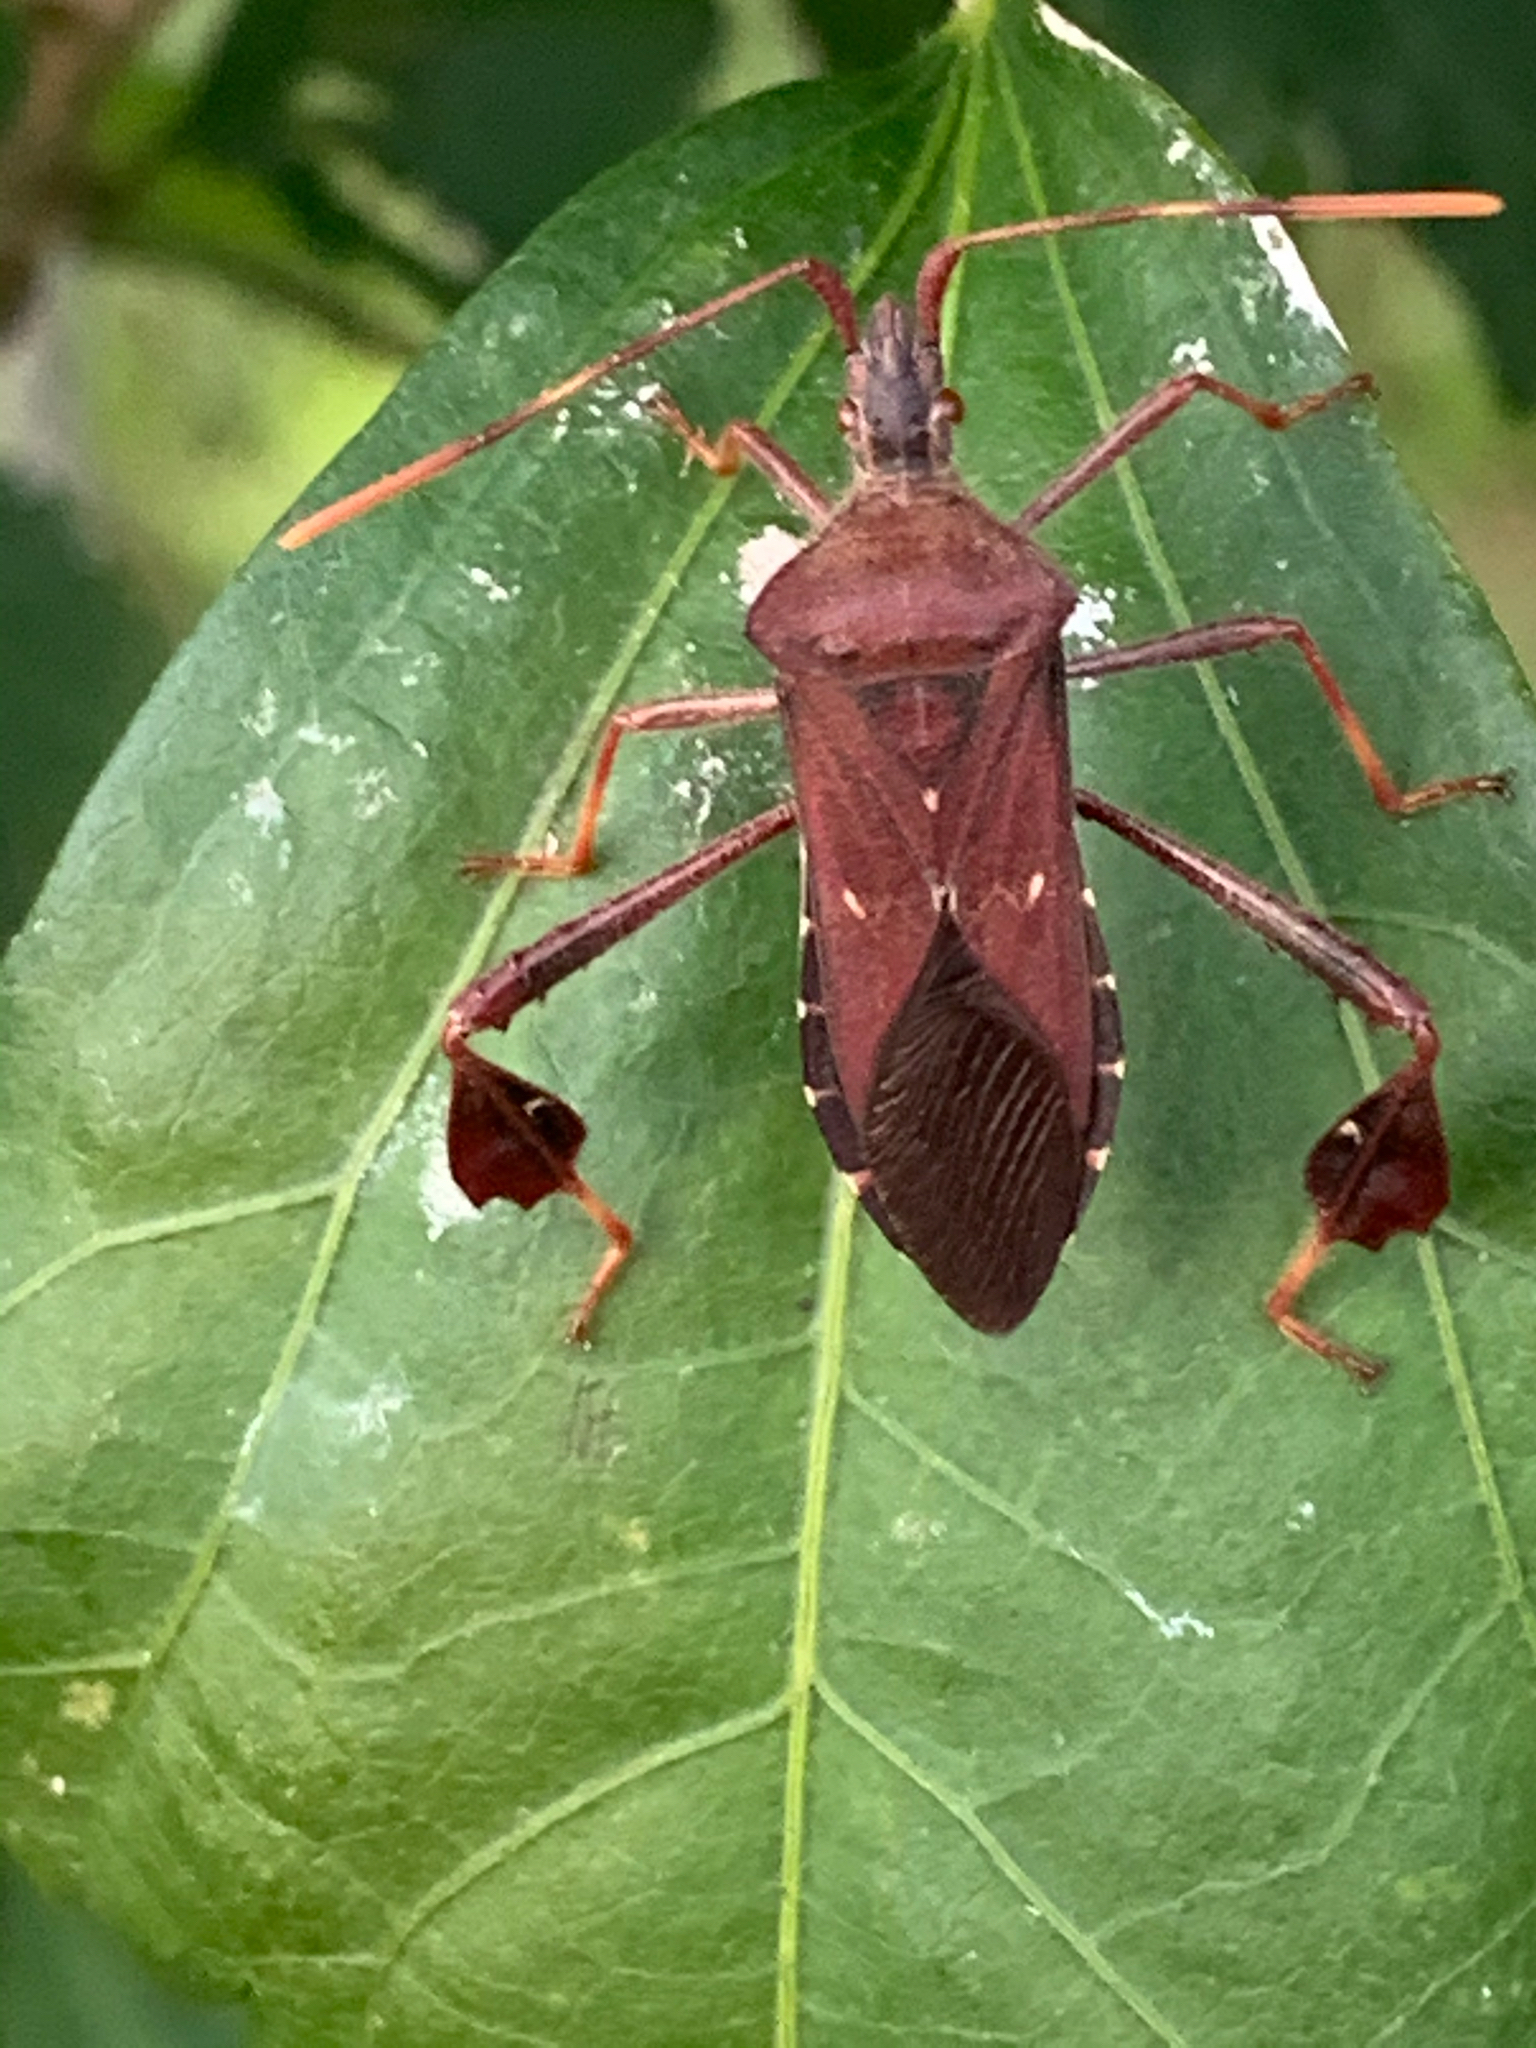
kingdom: Animalia
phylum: Arthropoda
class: Insecta
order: Hemiptera
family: Coreidae
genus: Leptoglossus
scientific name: Leptoglossus oppositus
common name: Northern leaf-footed bug
